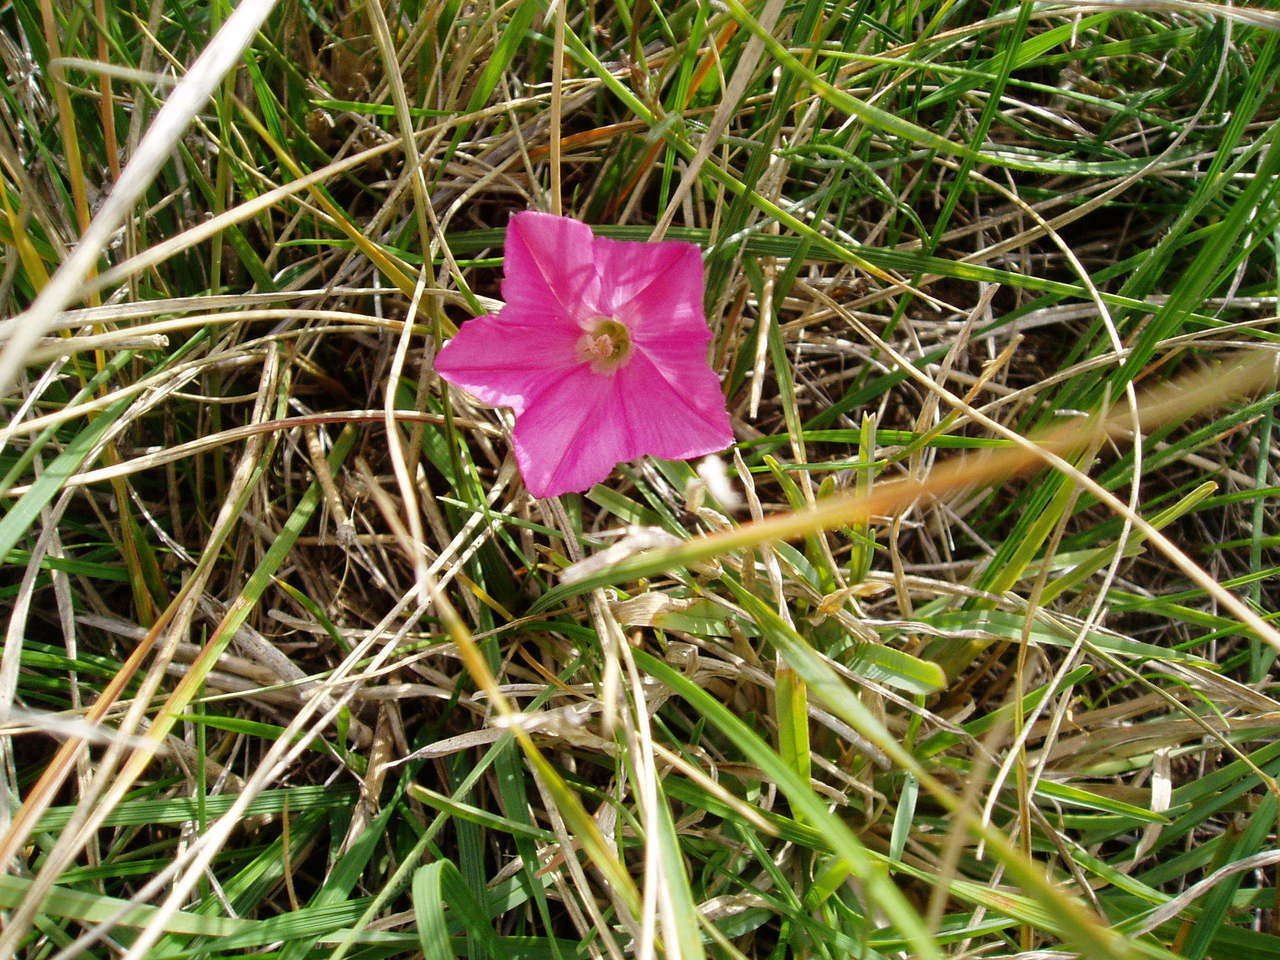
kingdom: Plantae
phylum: Tracheophyta
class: Magnoliopsida
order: Solanales
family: Convolvulaceae
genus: Convolvulus
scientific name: Convolvulus angustissimus
